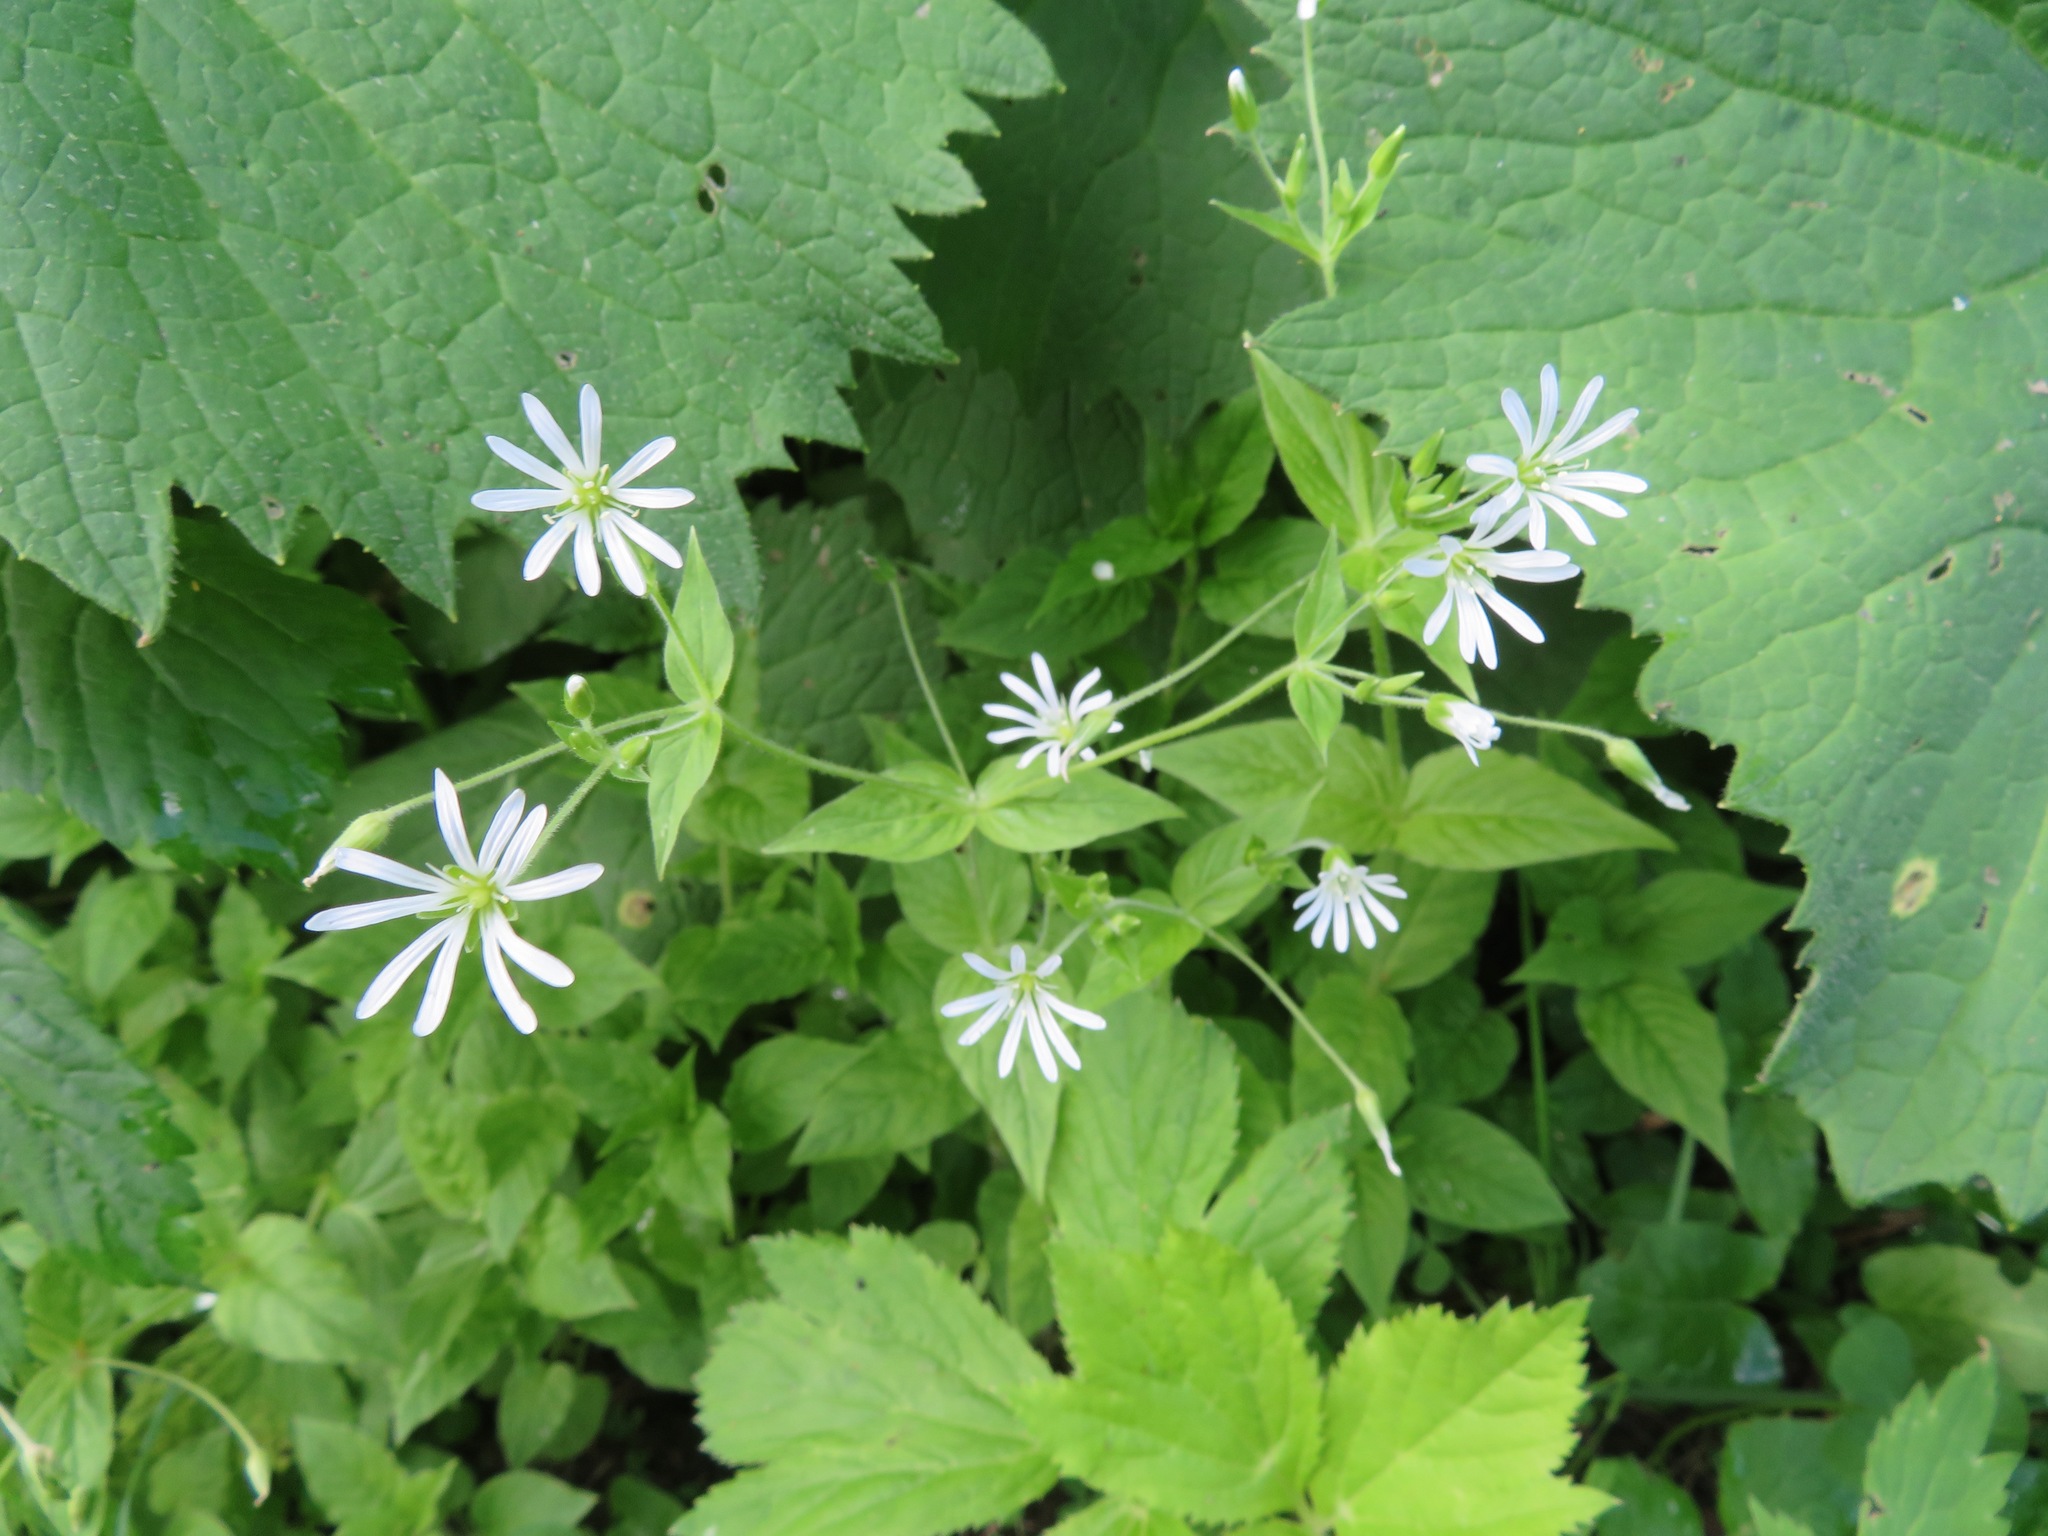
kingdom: Plantae
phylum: Tracheophyta
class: Magnoliopsida
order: Caryophyllales
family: Caryophyllaceae
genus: Stellaria
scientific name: Stellaria nemorum
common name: Wood stitchwort
